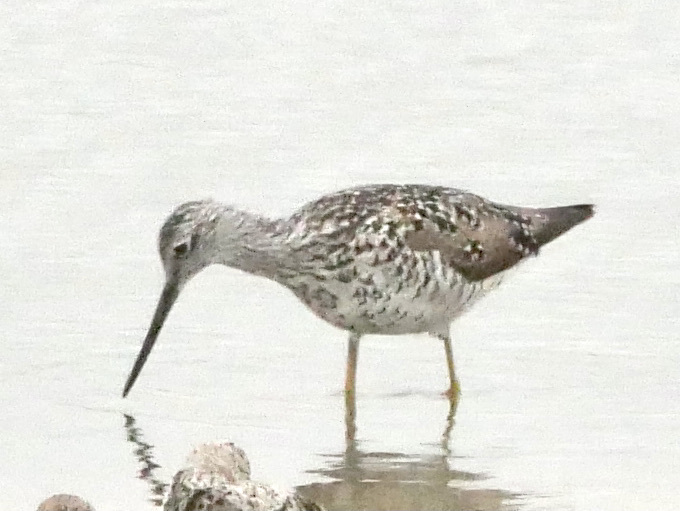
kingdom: Animalia
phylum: Chordata
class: Aves
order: Charadriiformes
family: Scolopacidae
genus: Tringa
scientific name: Tringa melanoleuca
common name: Greater yellowlegs
